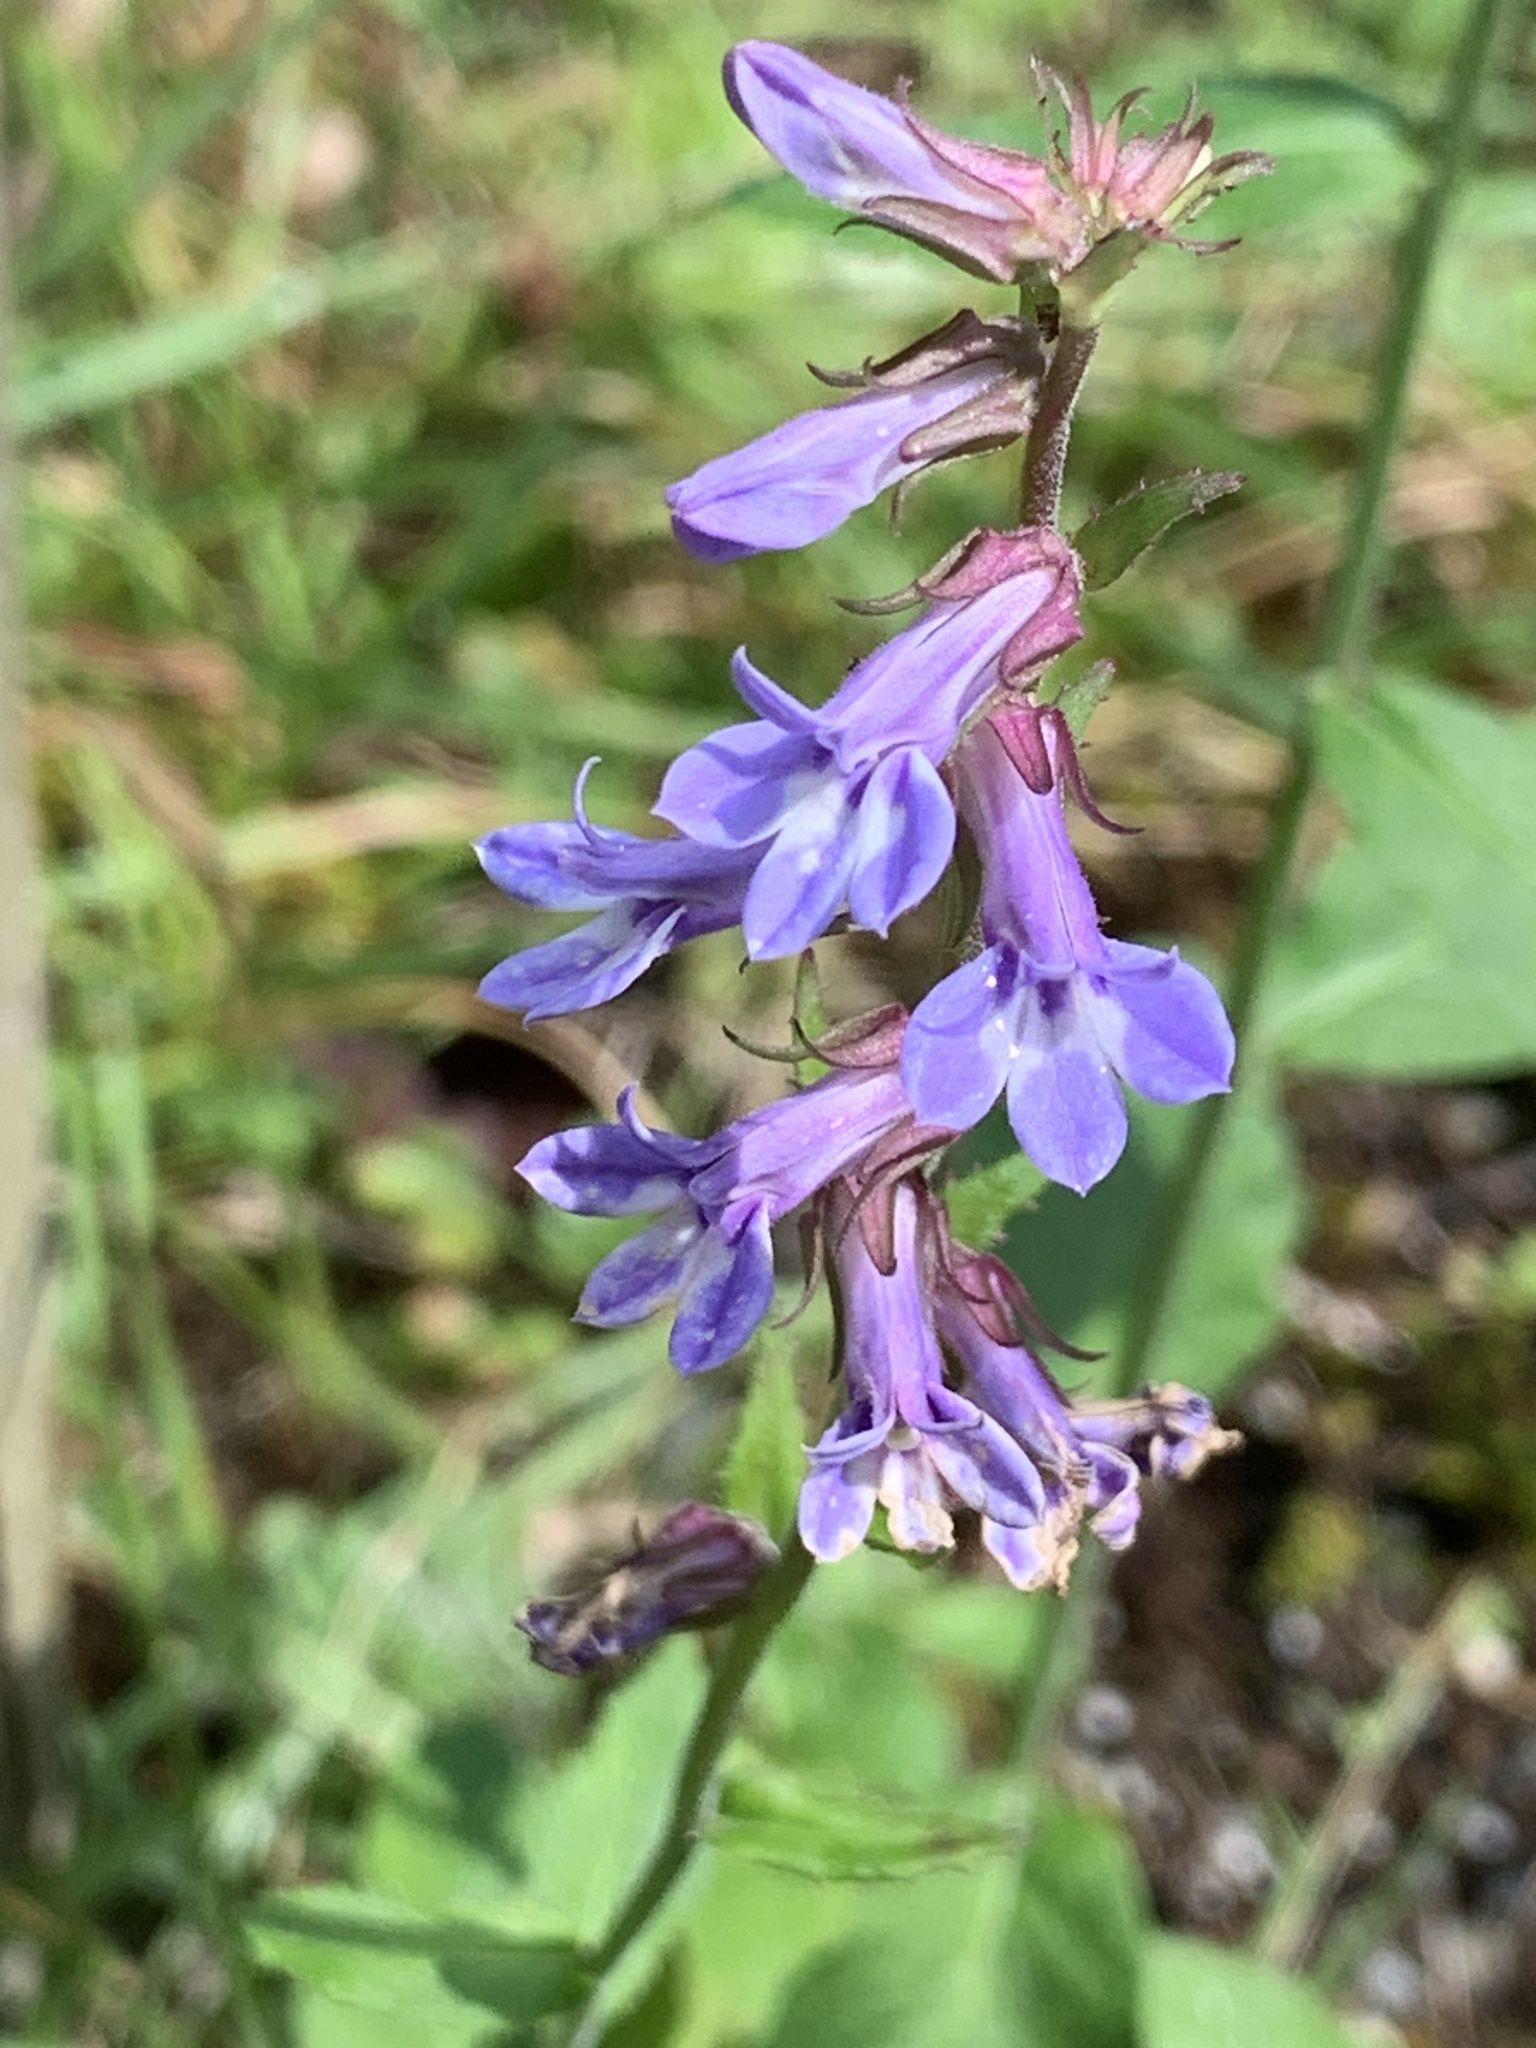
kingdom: Plantae
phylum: Tracheophyta
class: Magnoliopsida
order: Asterales
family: Campanulaceae
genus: Lobelia
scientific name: Lobelia puberula
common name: Purple dewdrop
